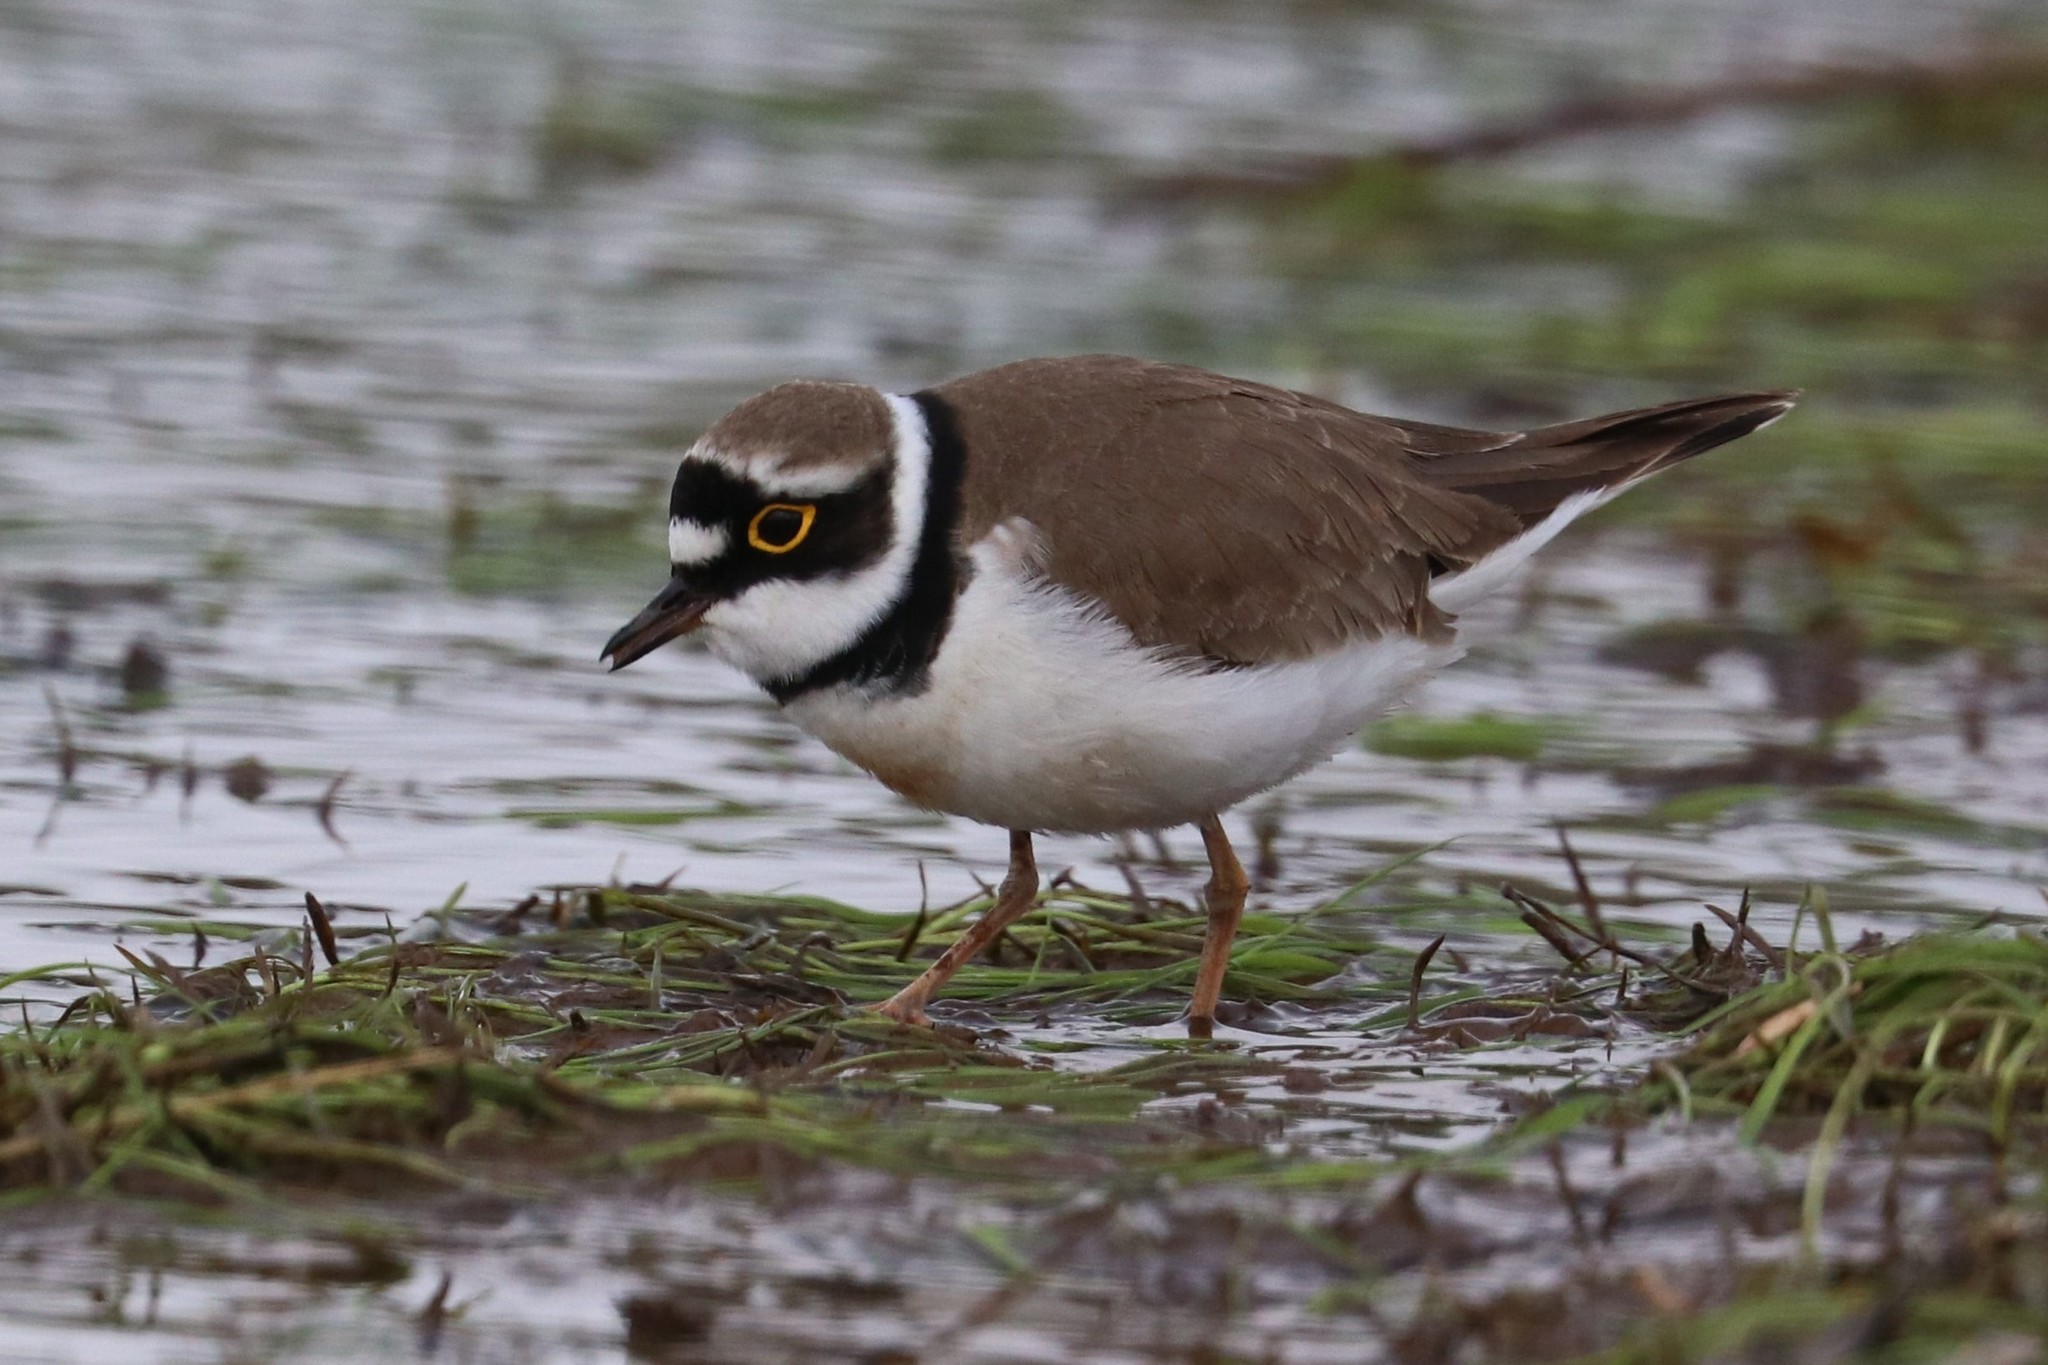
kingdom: Animalia
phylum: Chordata
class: Aves
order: Charadriiformes
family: Charadriidae
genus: Charadrius
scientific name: Charadrius dubius
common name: Little ringed plover
